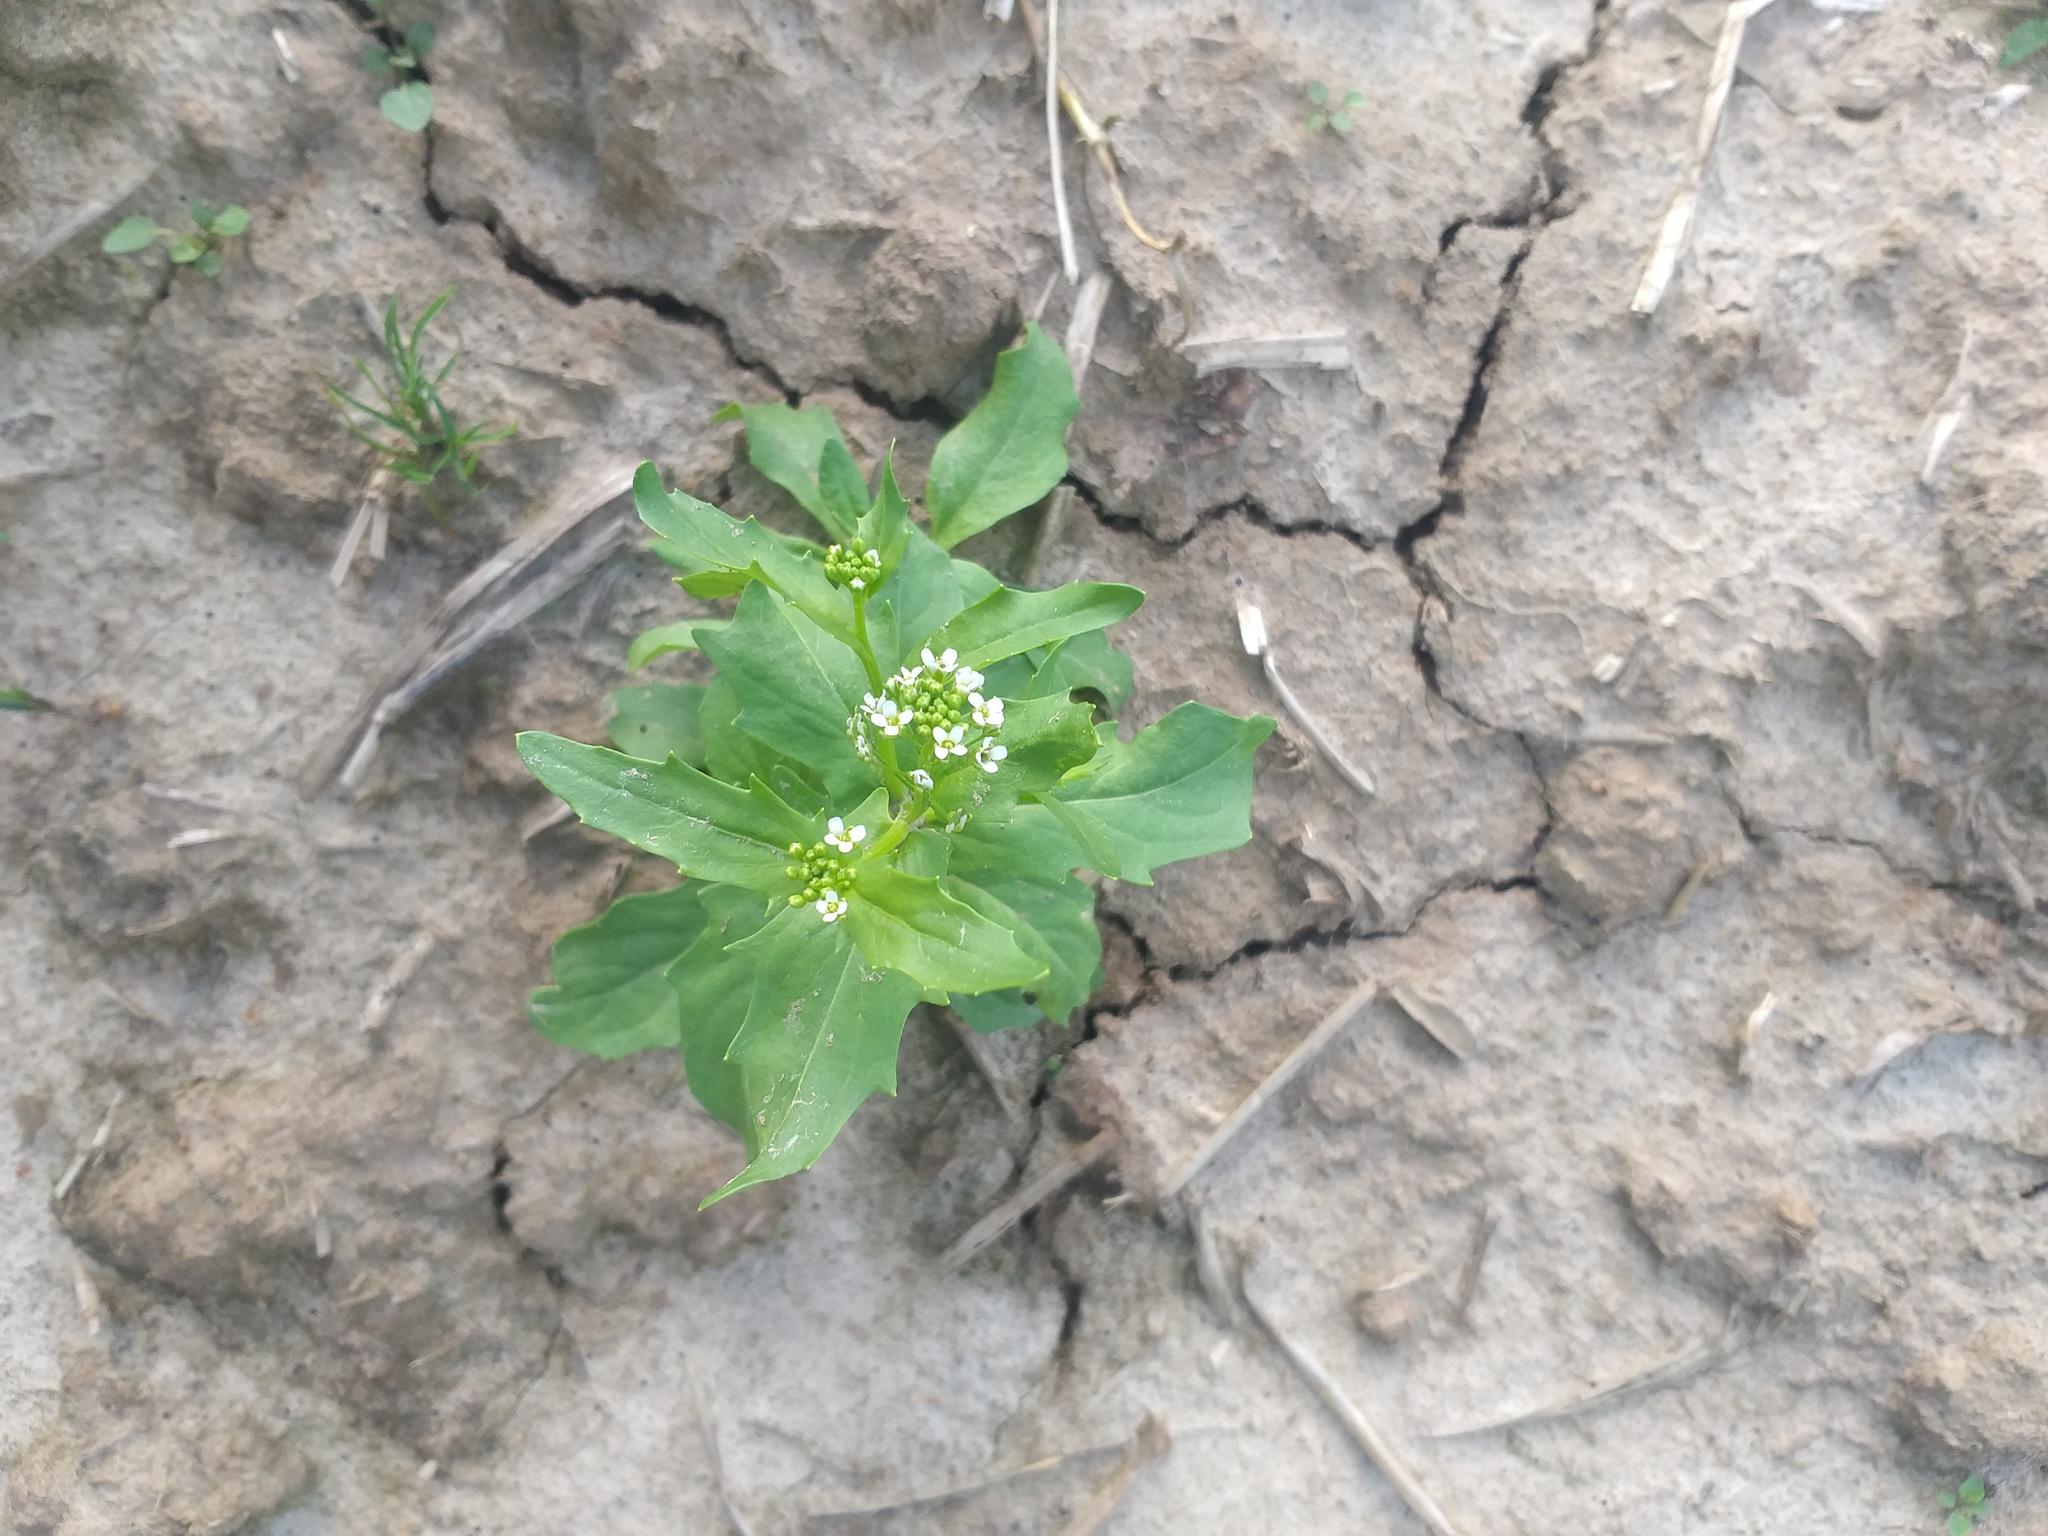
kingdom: Plantae
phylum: Tracheophyta
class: Magnoliopsida
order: Brassicales
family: Brassicaceae
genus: Thlaspi
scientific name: Thlaspi arvense
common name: Field pennycress
